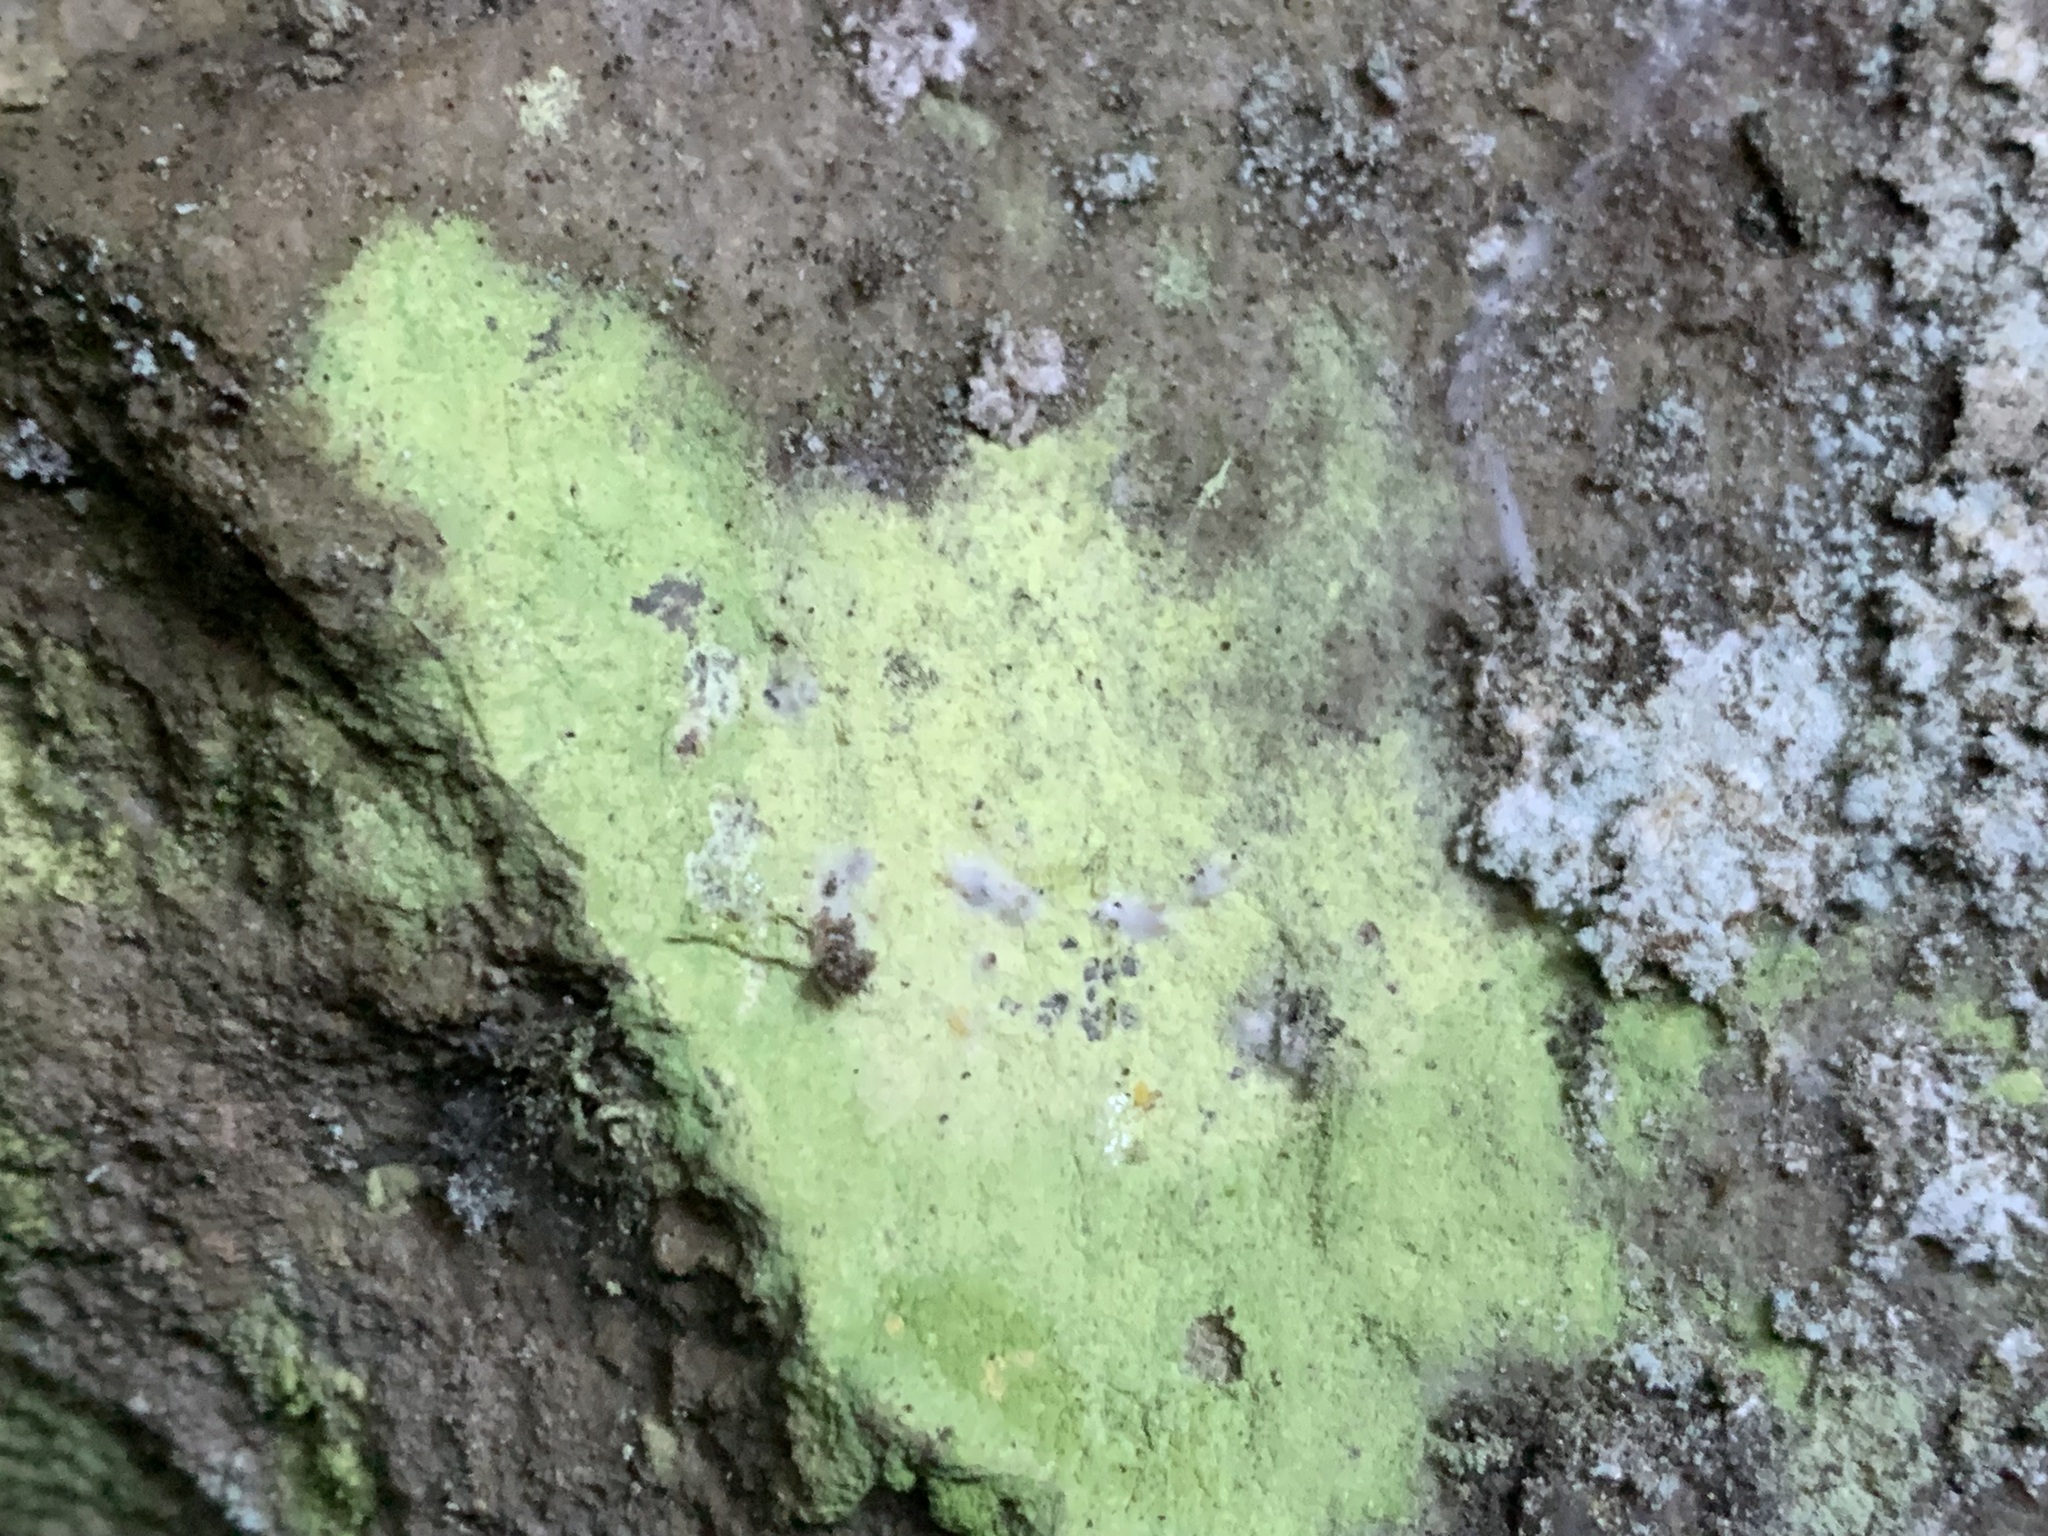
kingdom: Fungi
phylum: Ascomycota
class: Lecanoromycetes
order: Lecanorales
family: Psilolechiaceae
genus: Psilolechia
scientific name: Psilolechia lucida
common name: Sulphur dust lichen
